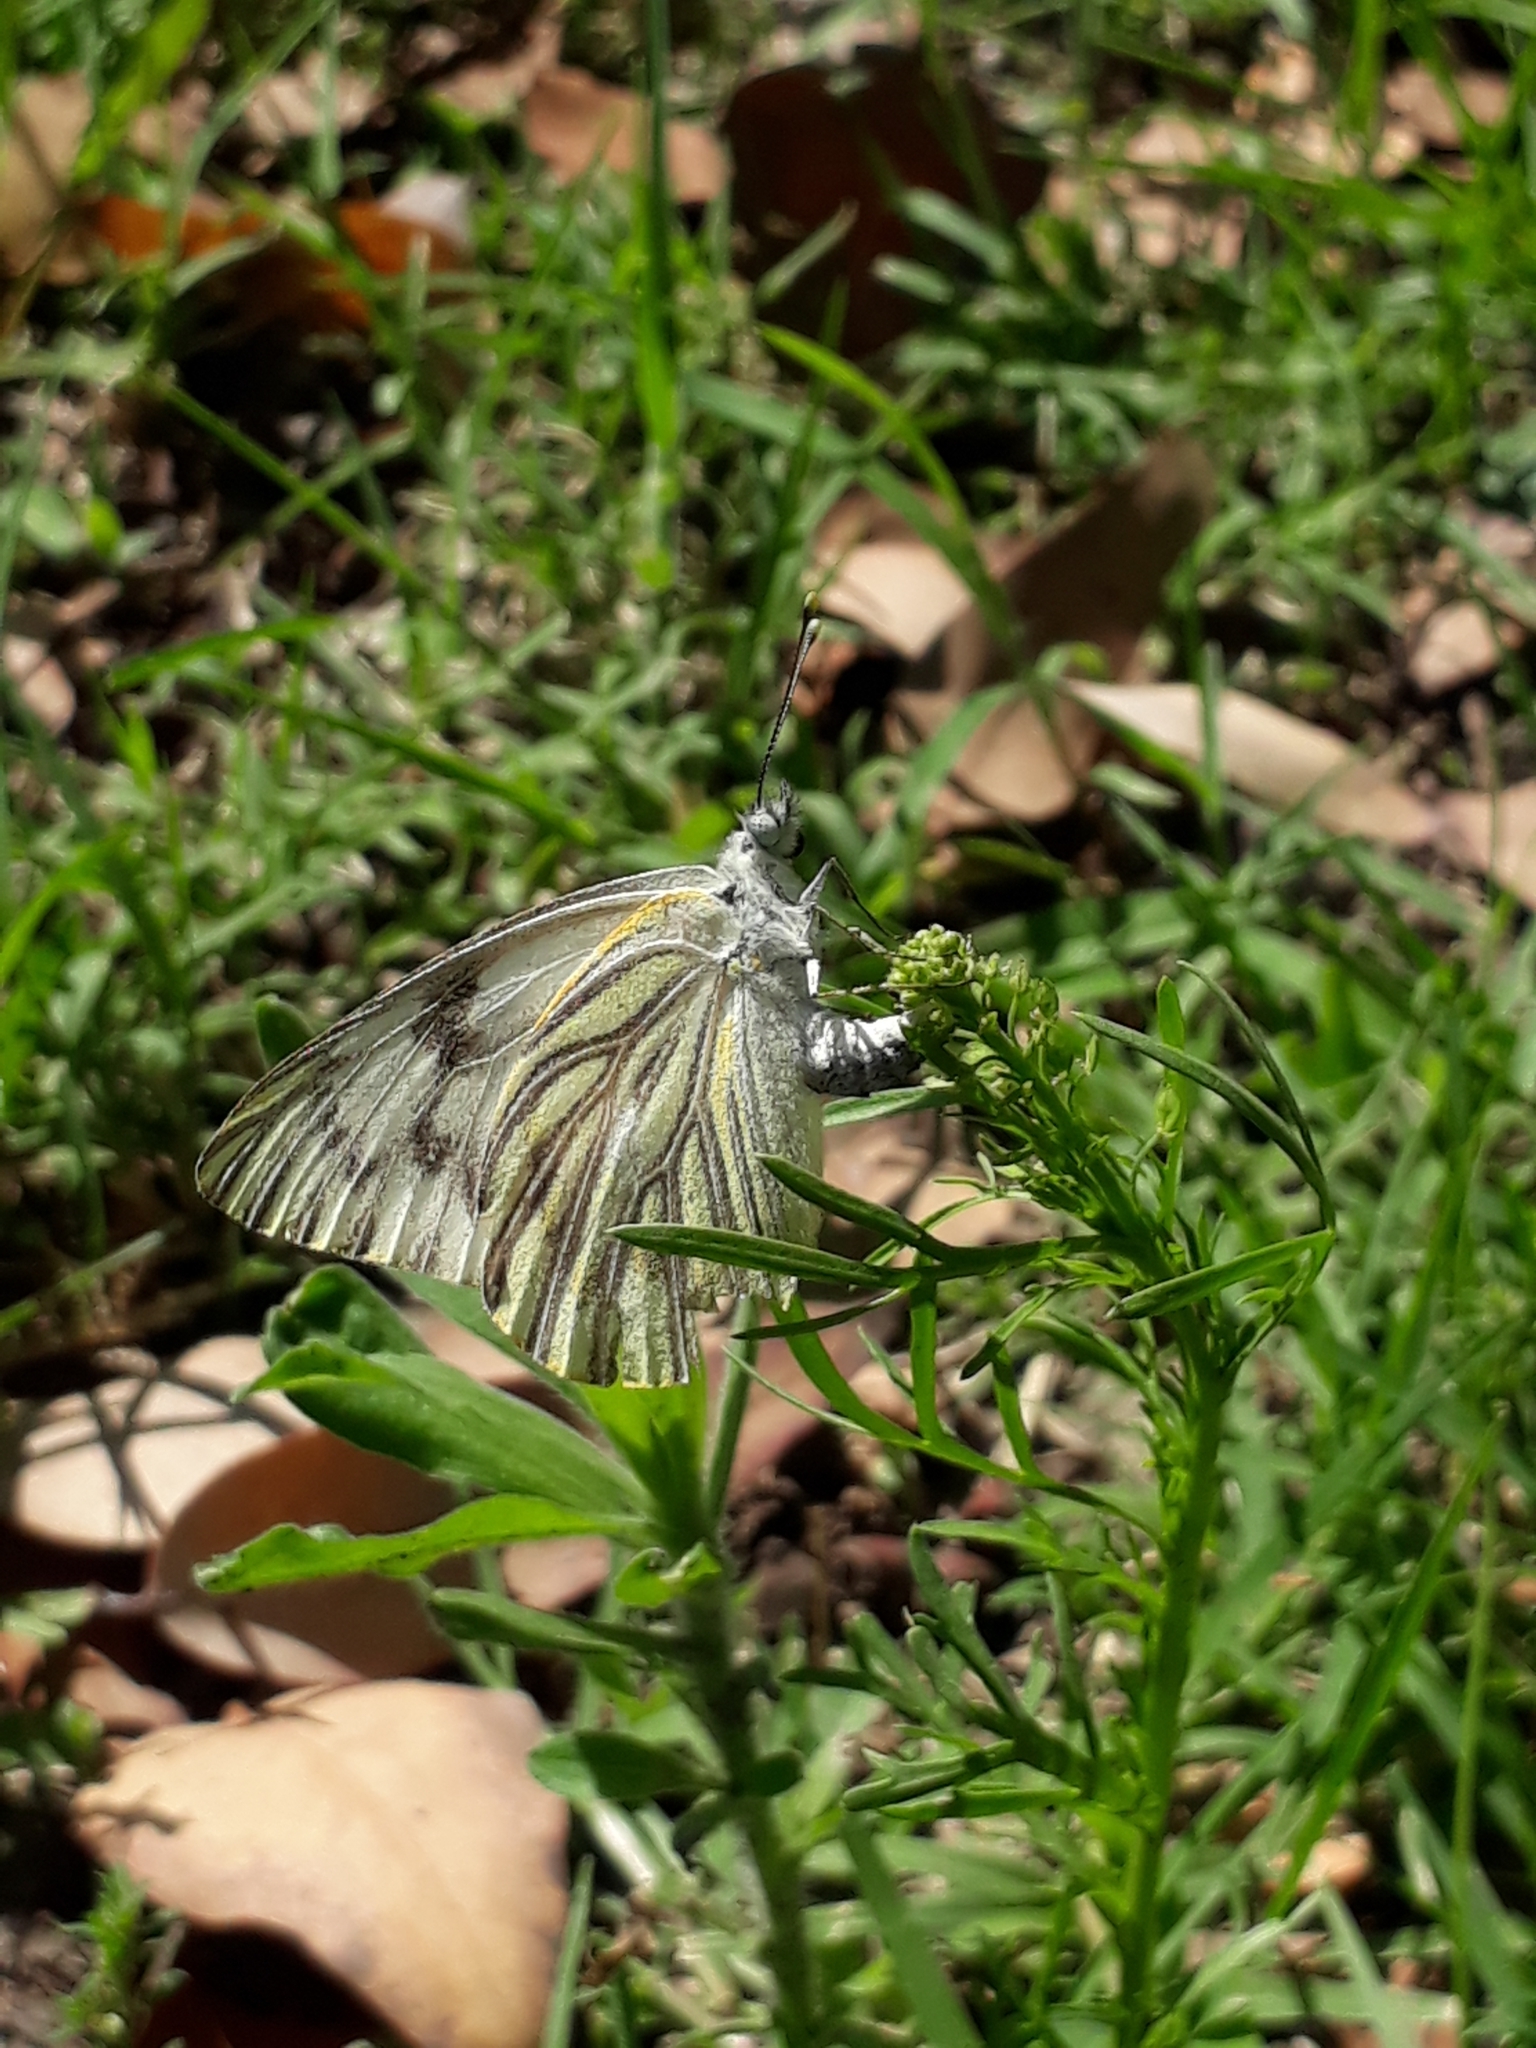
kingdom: Animalia
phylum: Arthropoda
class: Insecta
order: Lepidoptera
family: Pieridae
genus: Tatochila
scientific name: Tatochila mercedis
